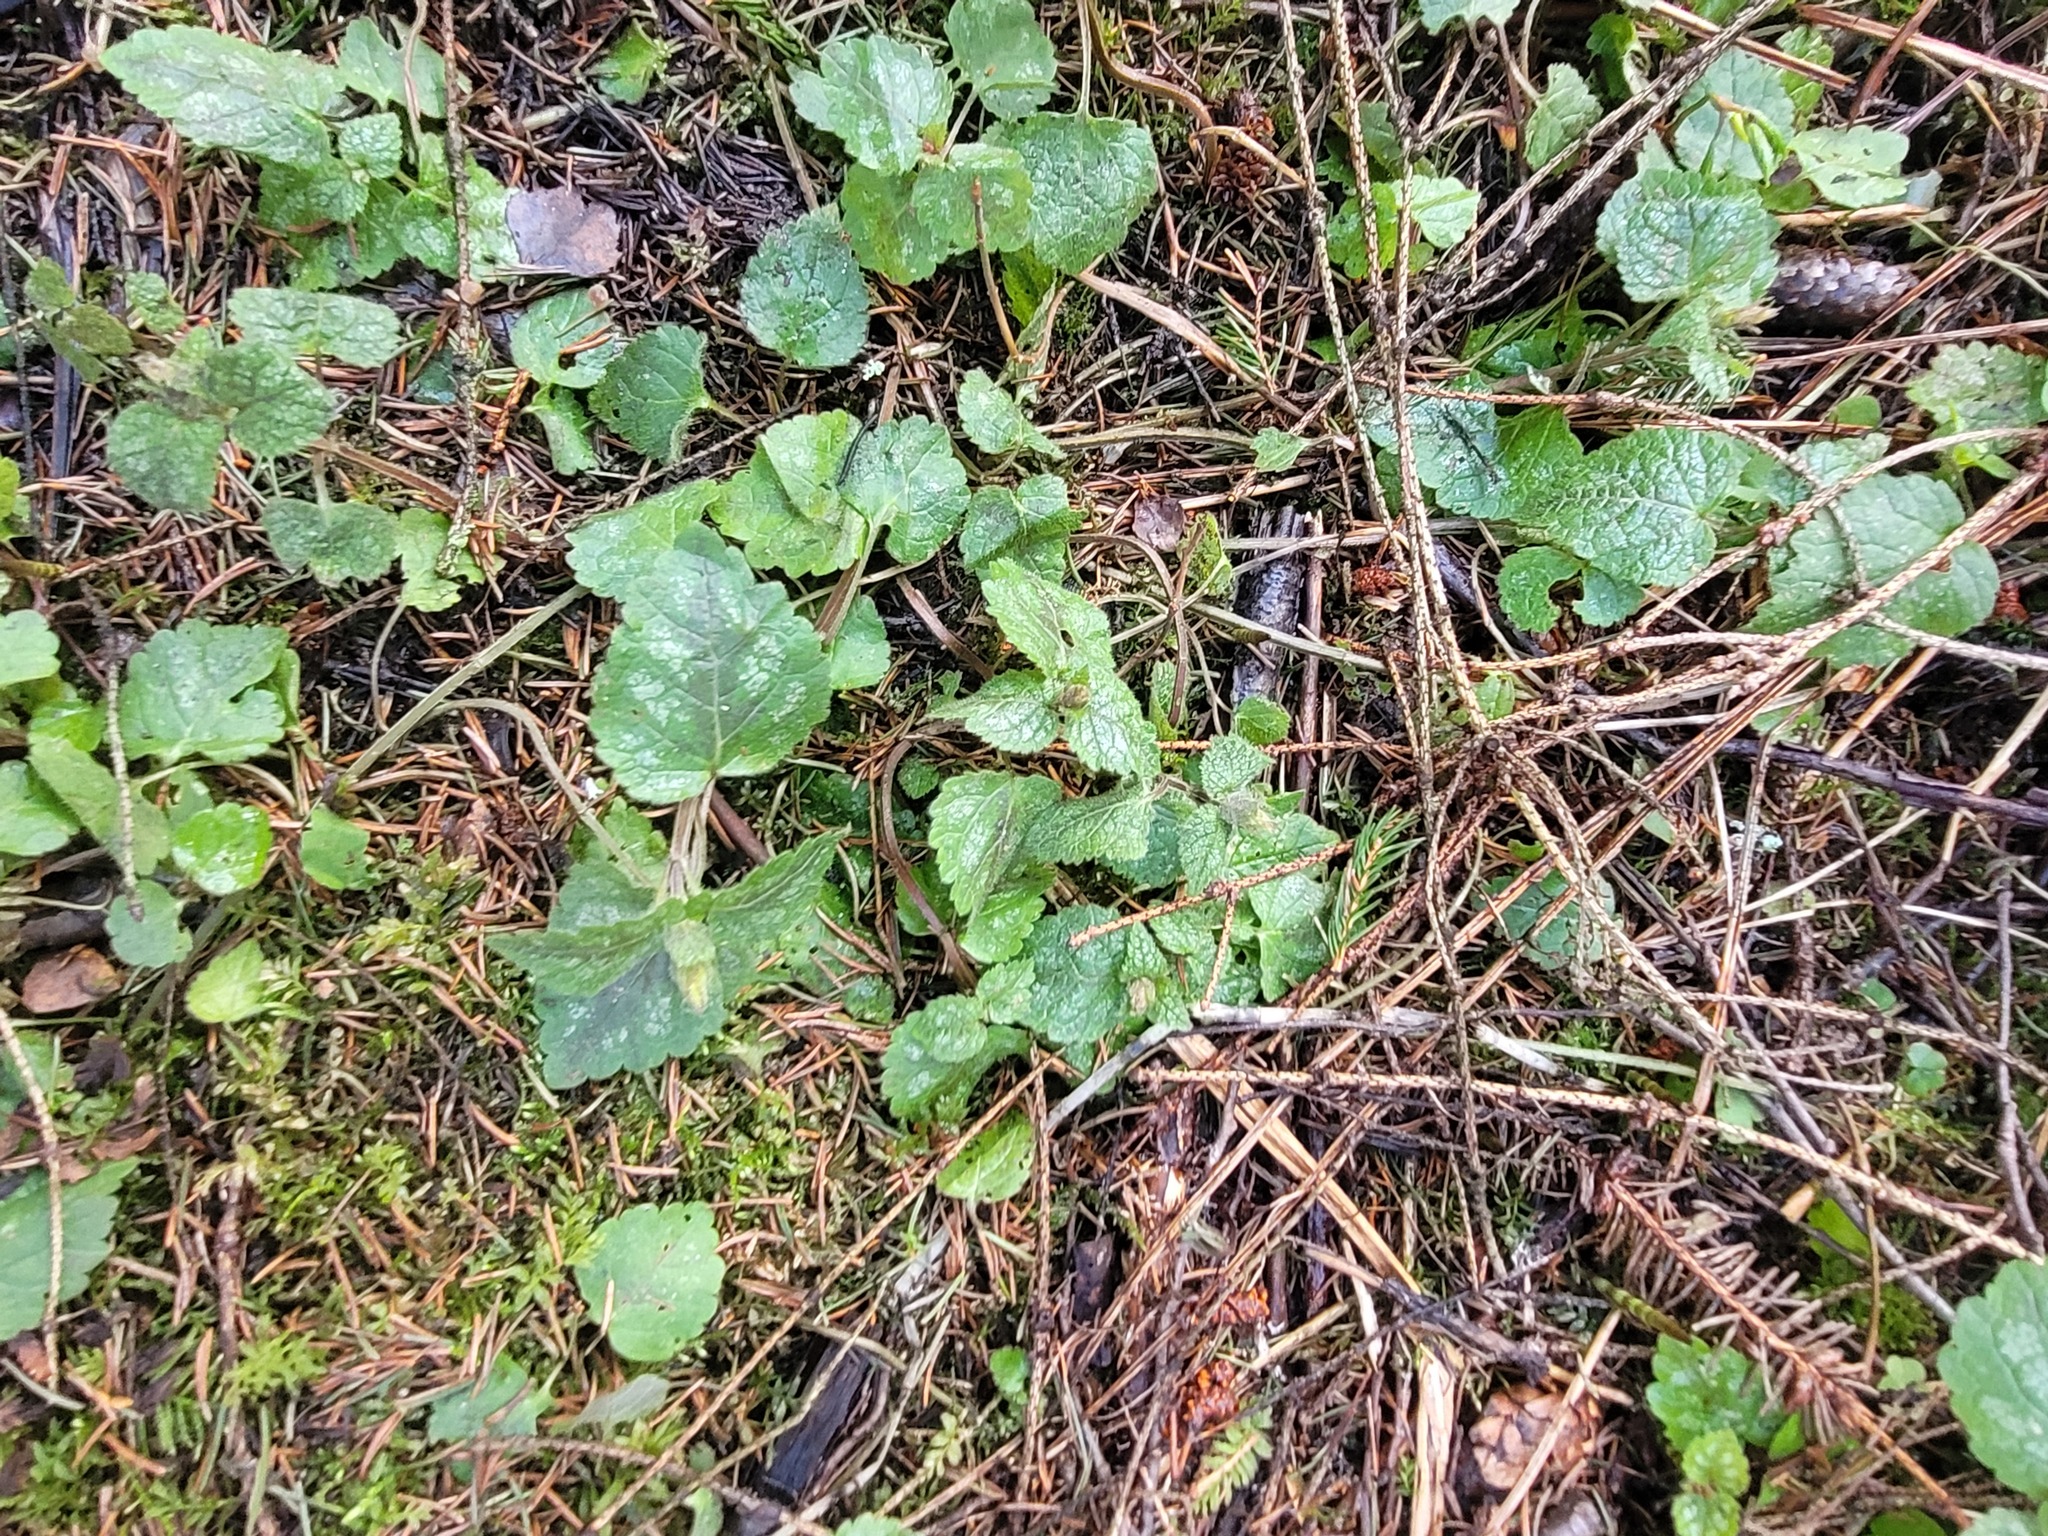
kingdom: Plantae
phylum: Tracheophyta
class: Magnoliopsida
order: Lamiales
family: Lamiaceae
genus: Lamium
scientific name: Lamium galeobdolon
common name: Yellow archangel
